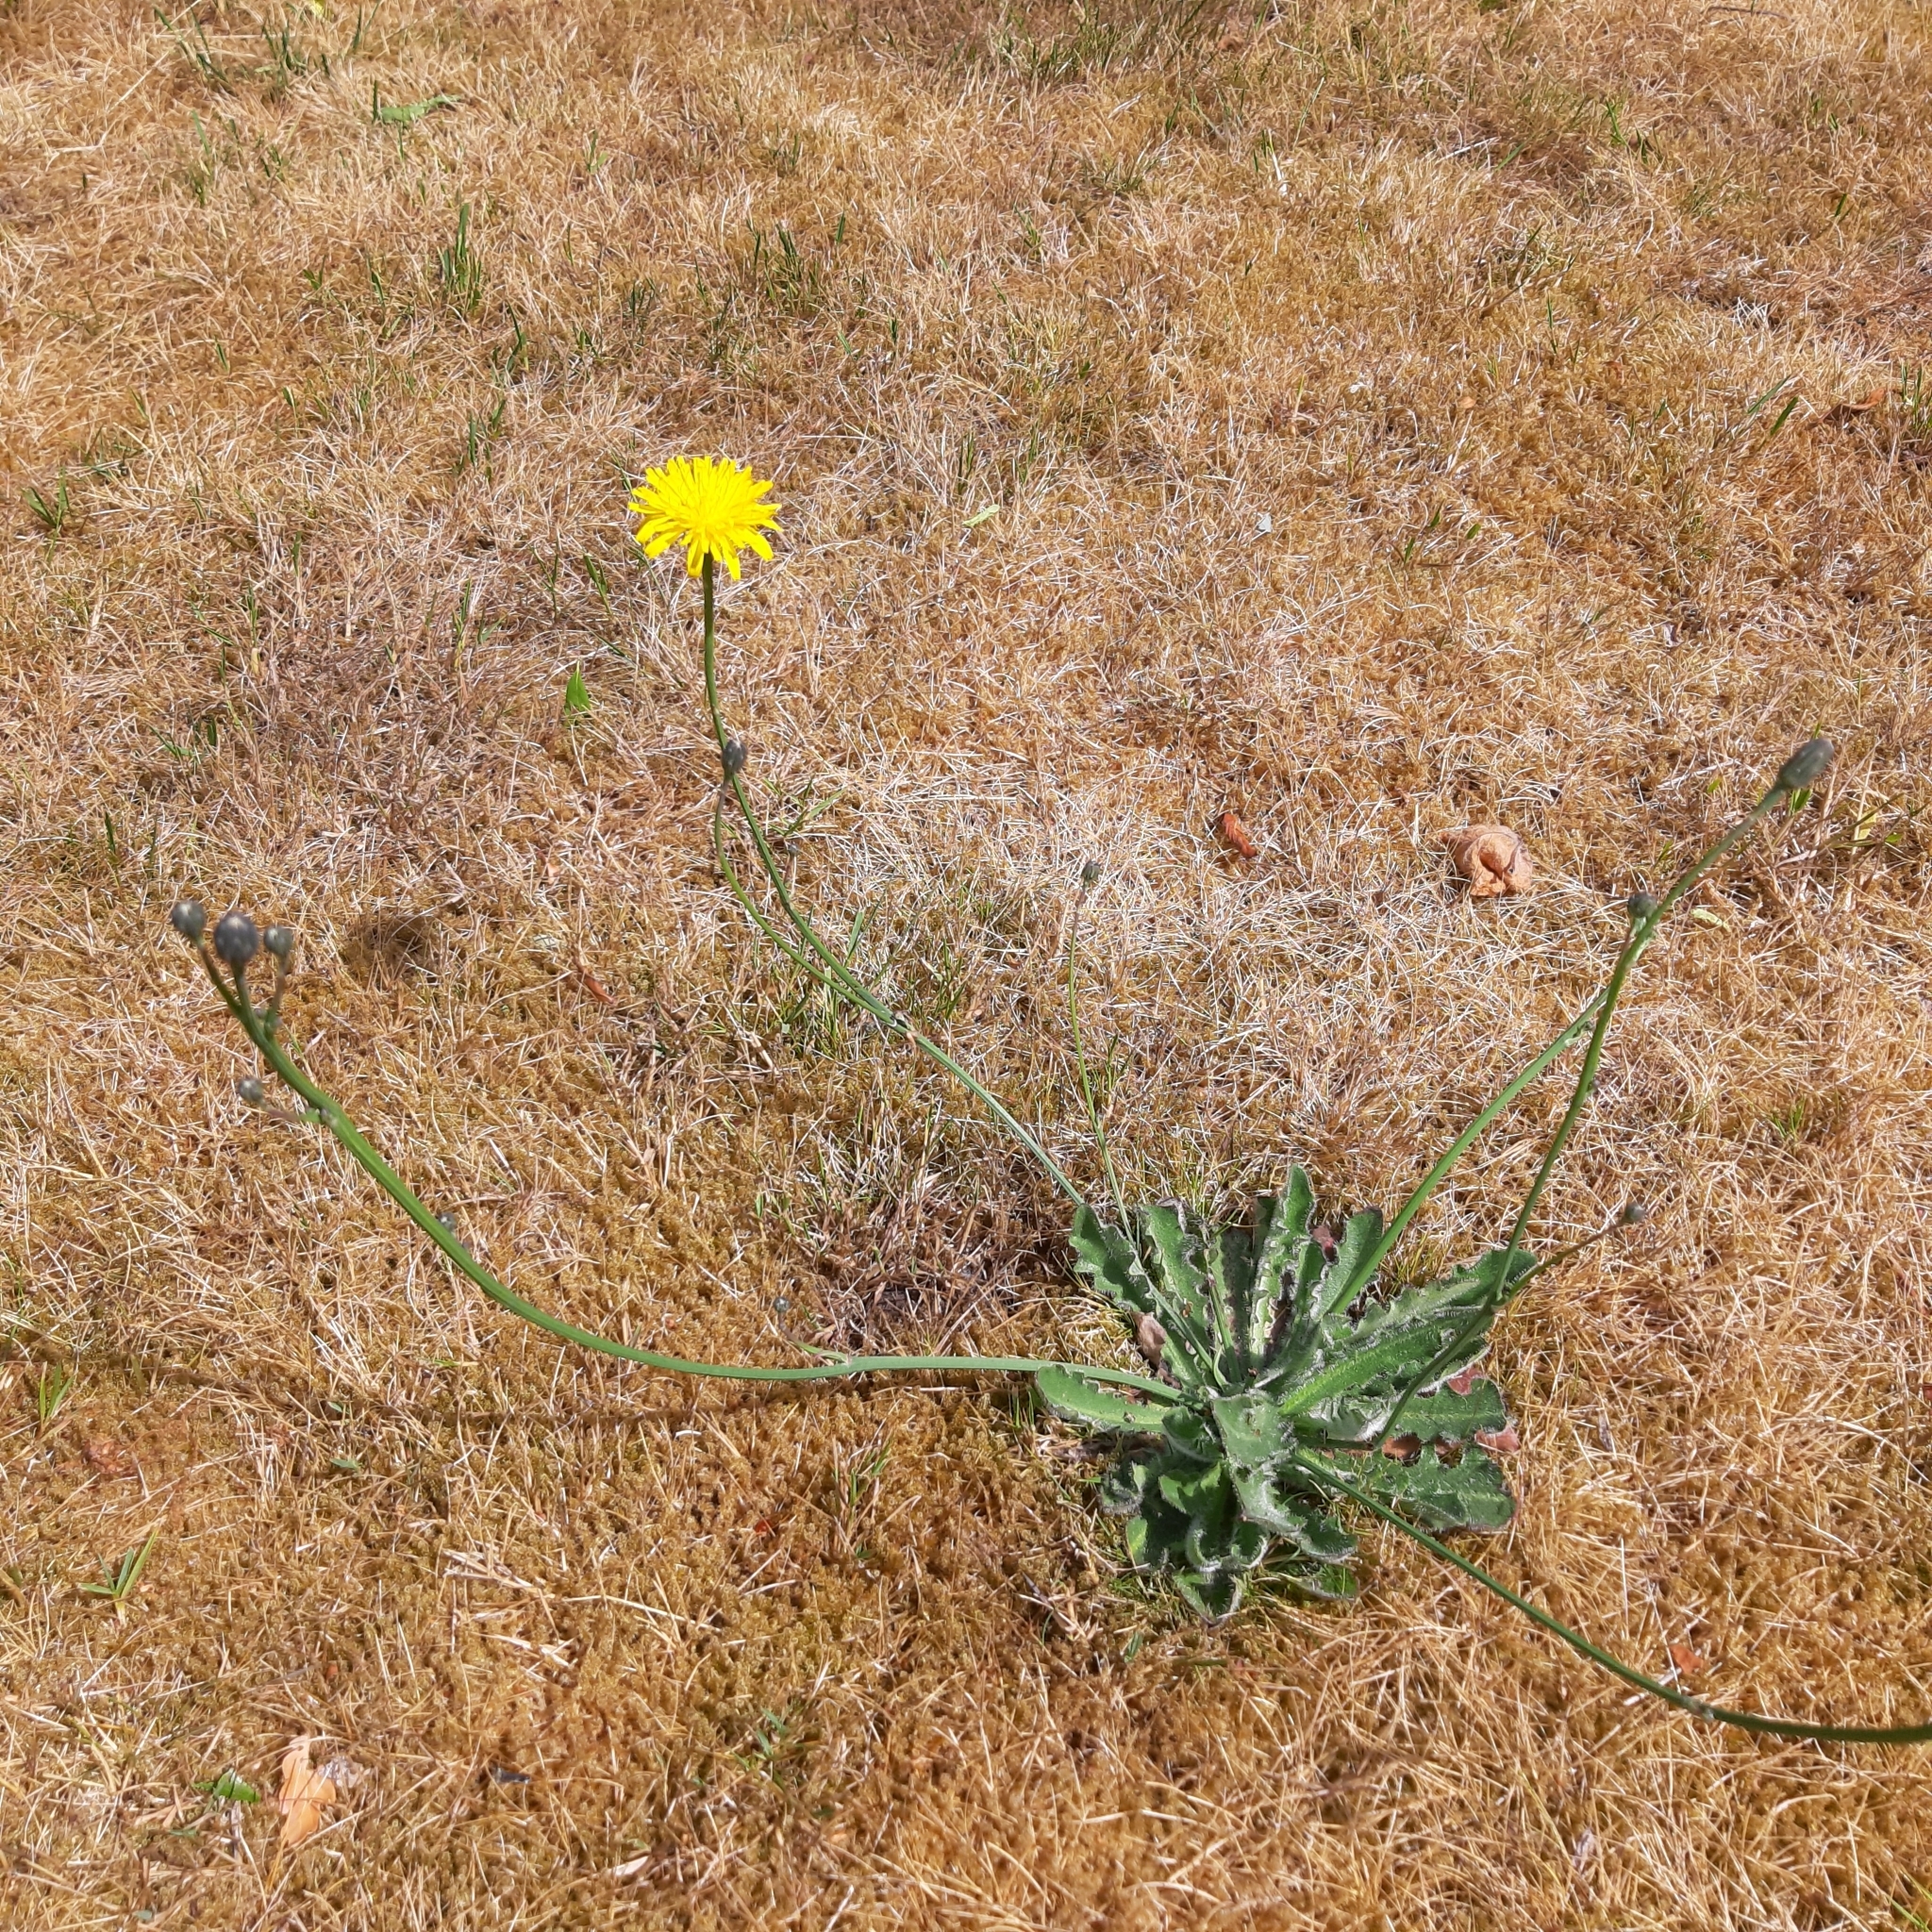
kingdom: Plantae
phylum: Tracheophyta
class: Magnoliopsida
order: Asterales
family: Asteraceae
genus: Hypochaeris
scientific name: Hypochaeris radicata
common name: Flatweed
